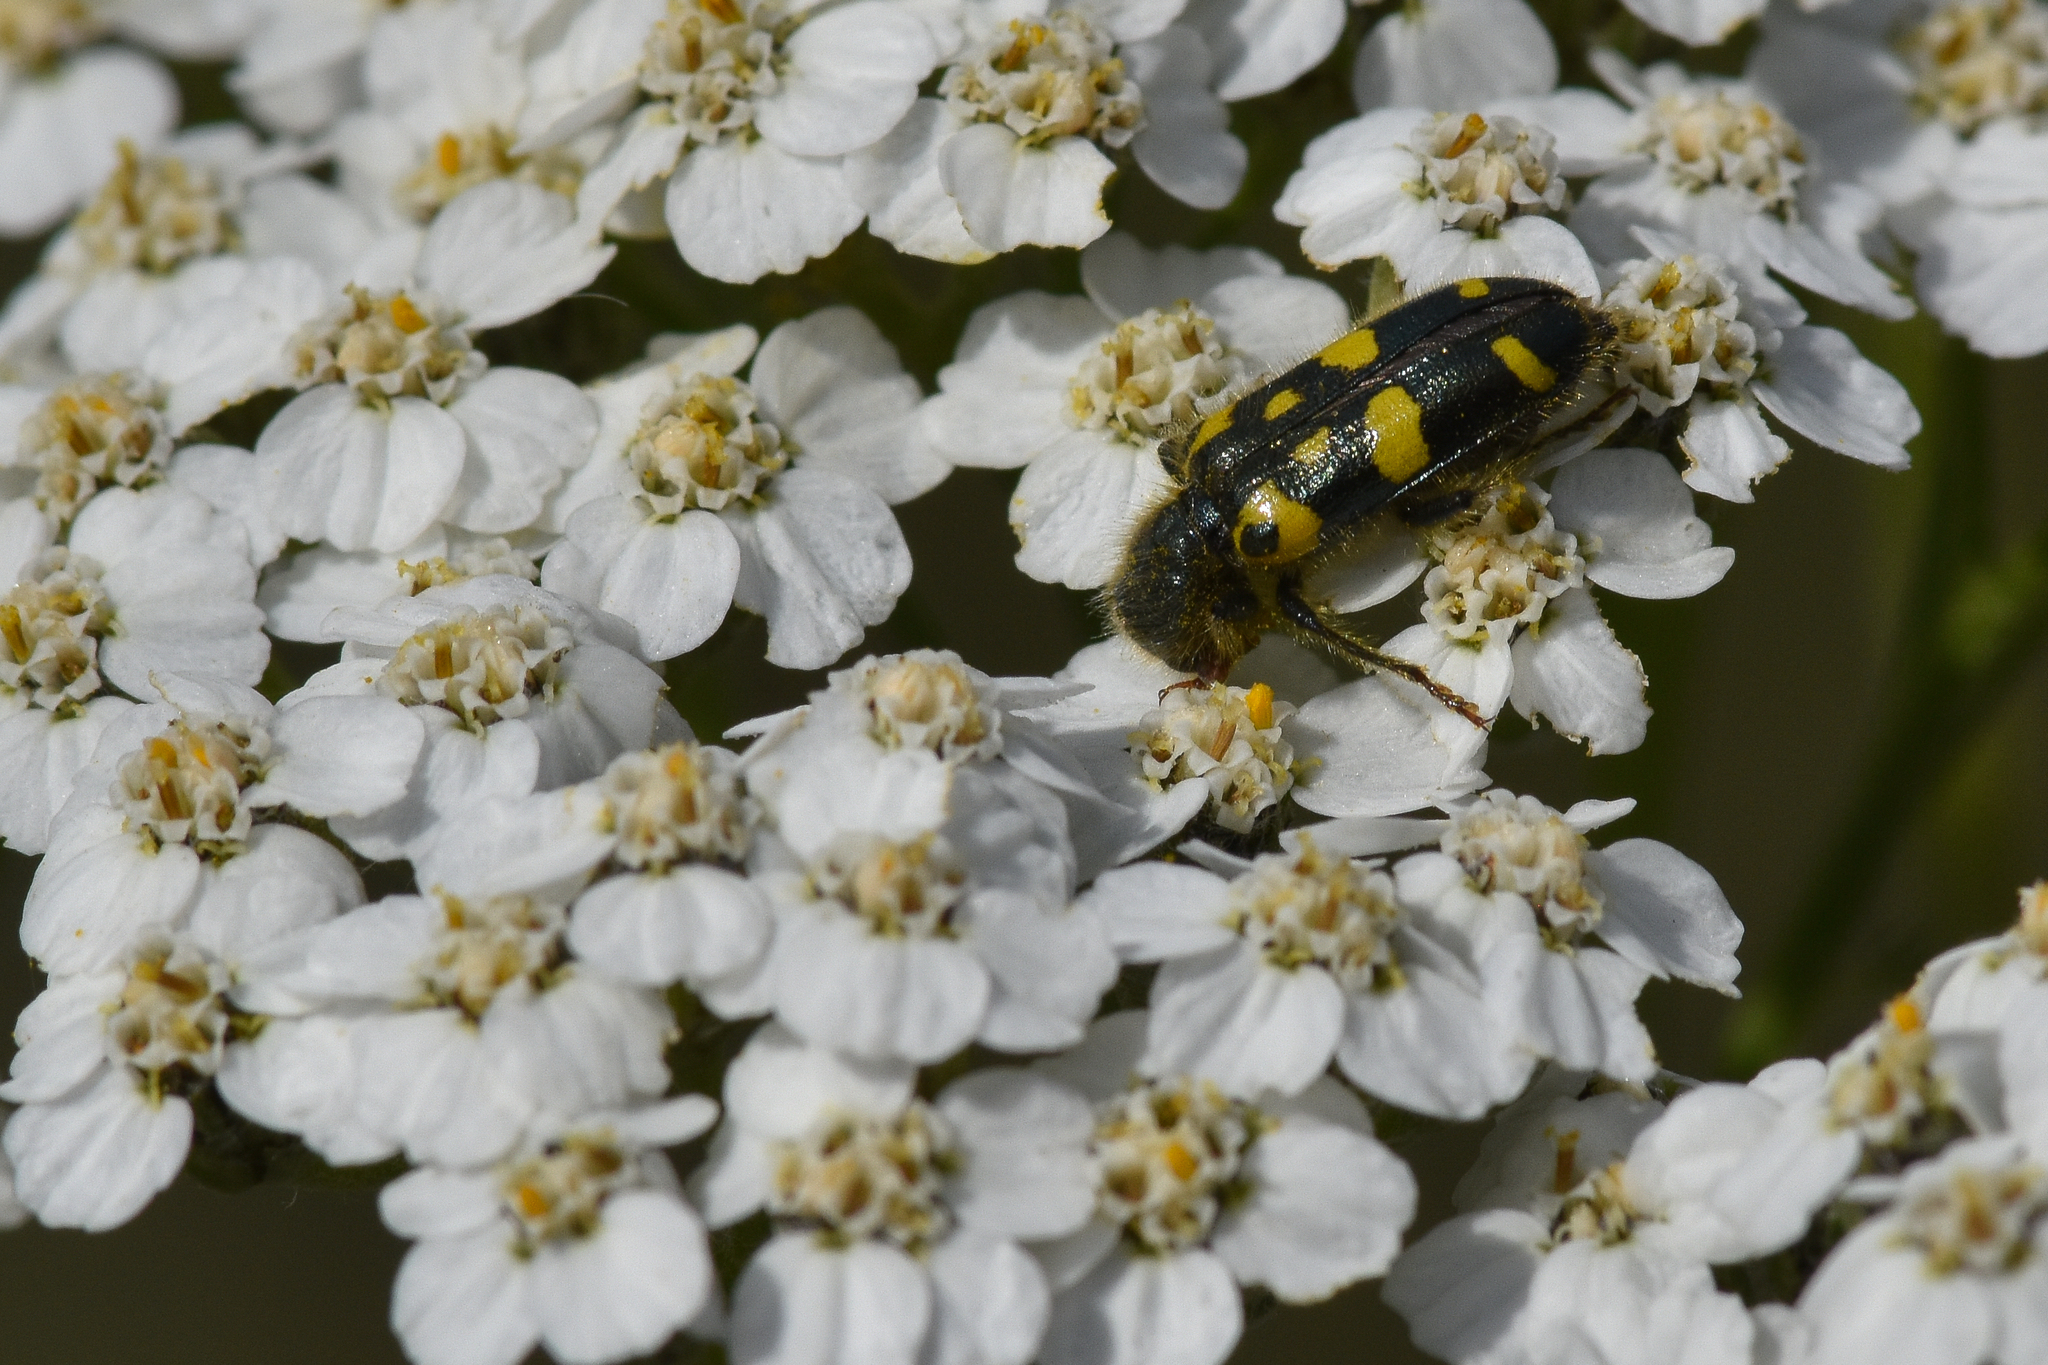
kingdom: Animalia
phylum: Arthropoda
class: Insecta
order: Coleoptera
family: Cleridae
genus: Trichodes
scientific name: Trichodes ornatus
